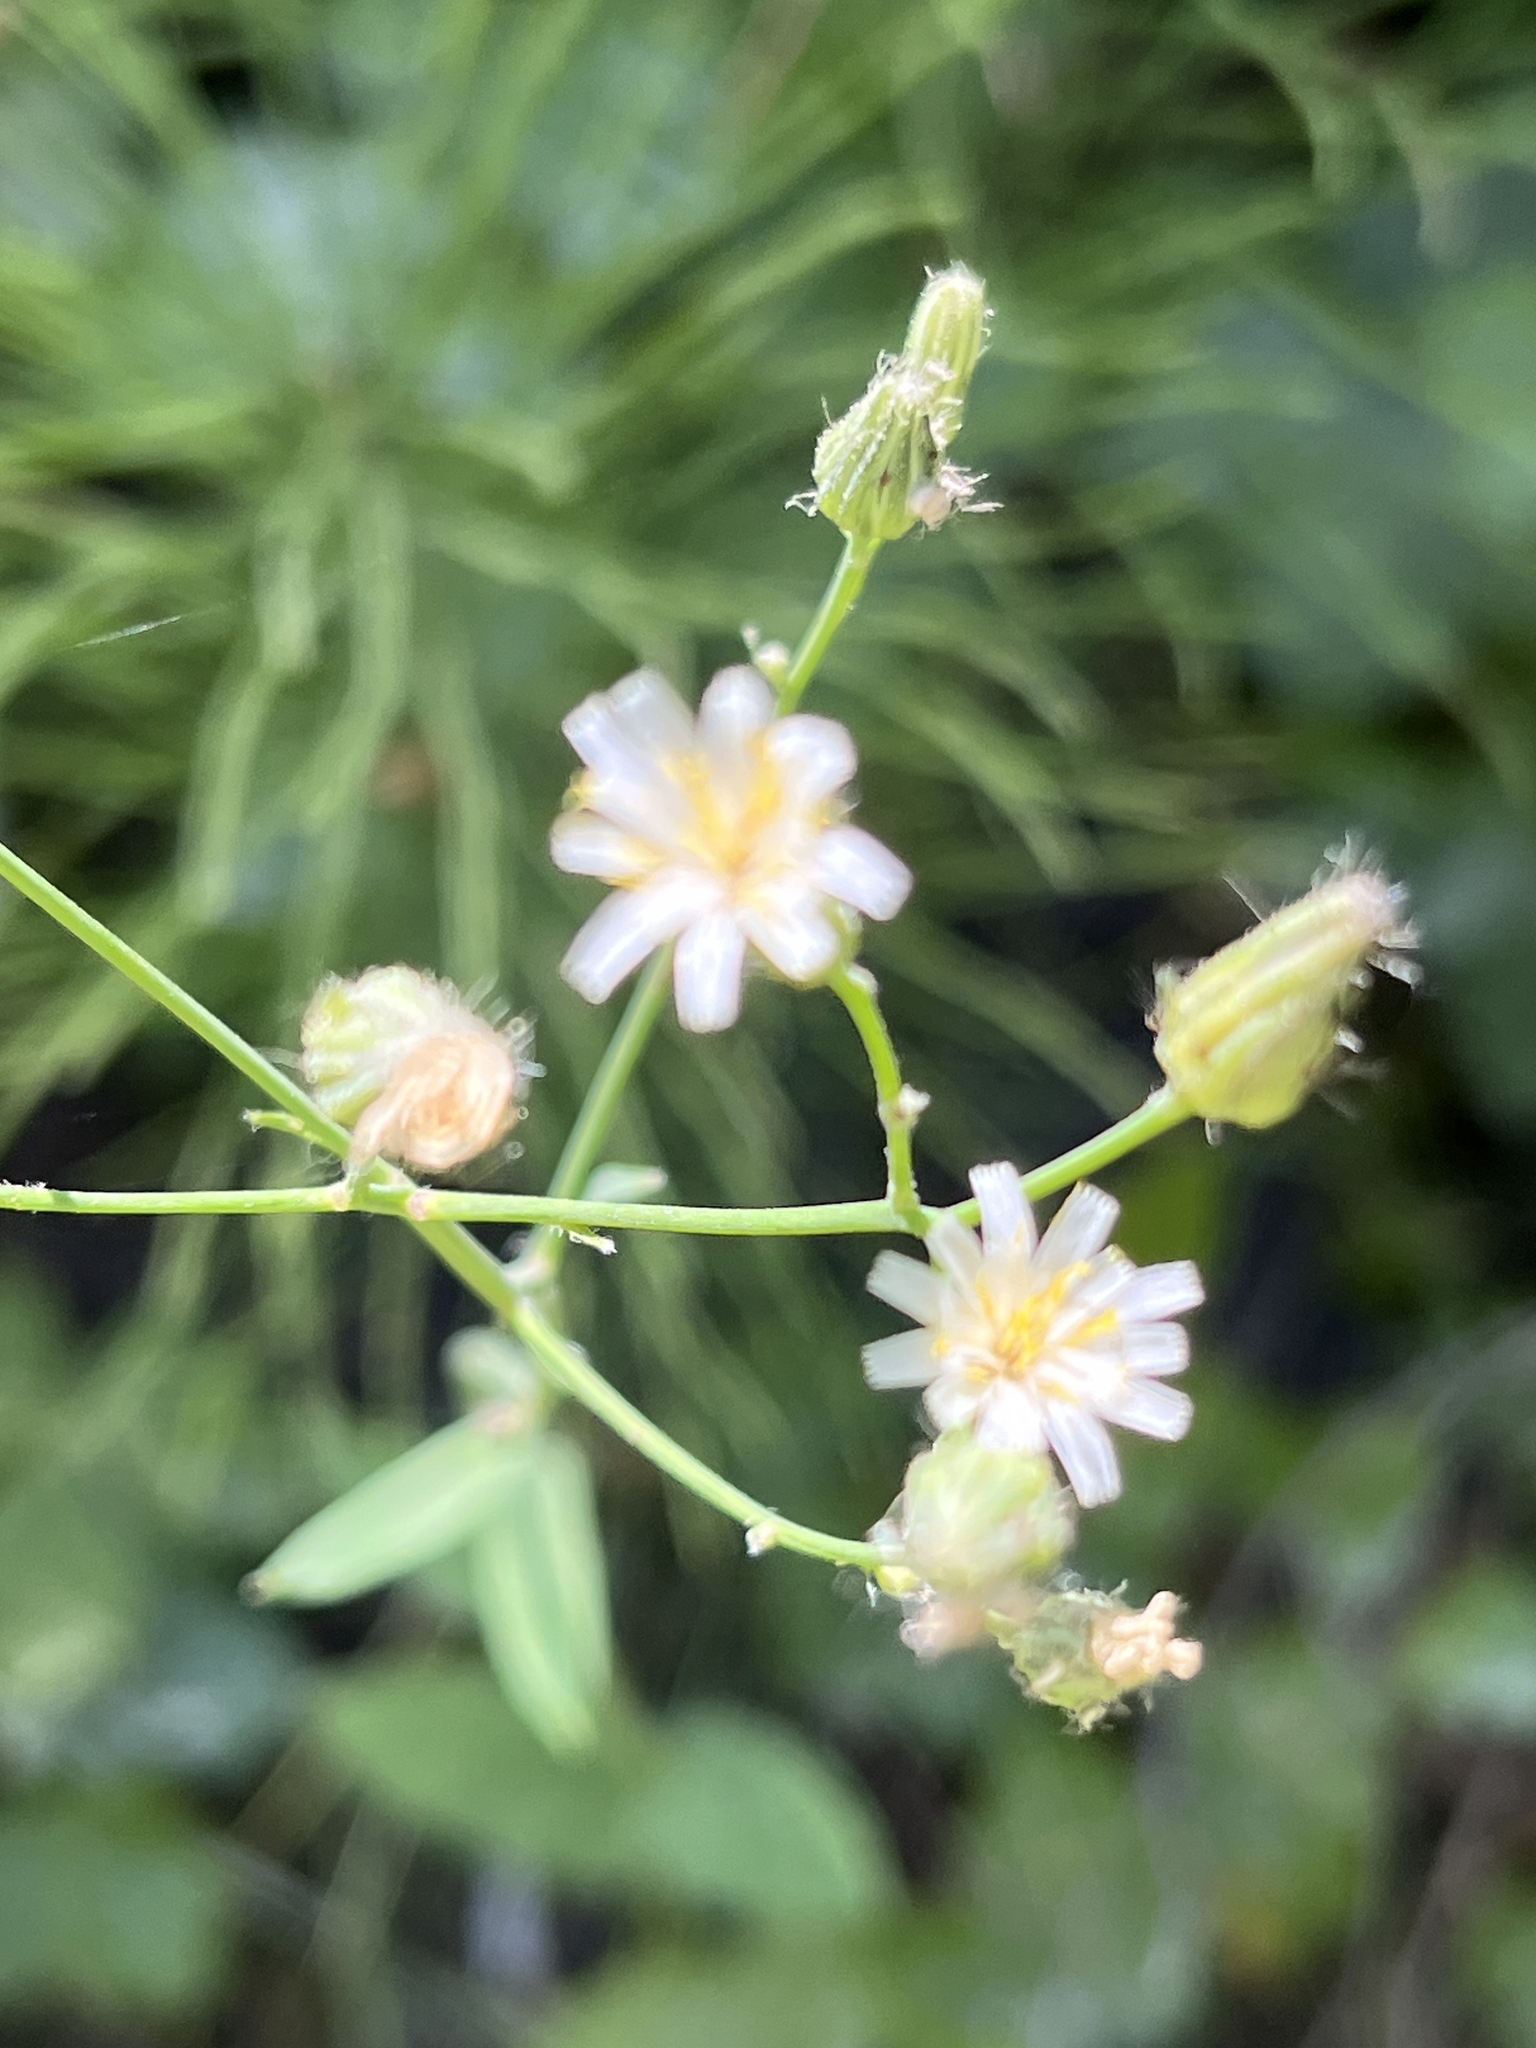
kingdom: Plantae
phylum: Tracheophyta
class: Magnoliopsida
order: Asterales
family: Asteraceae
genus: Hieracium
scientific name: Hieracium albiflorum
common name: White hawkweed
